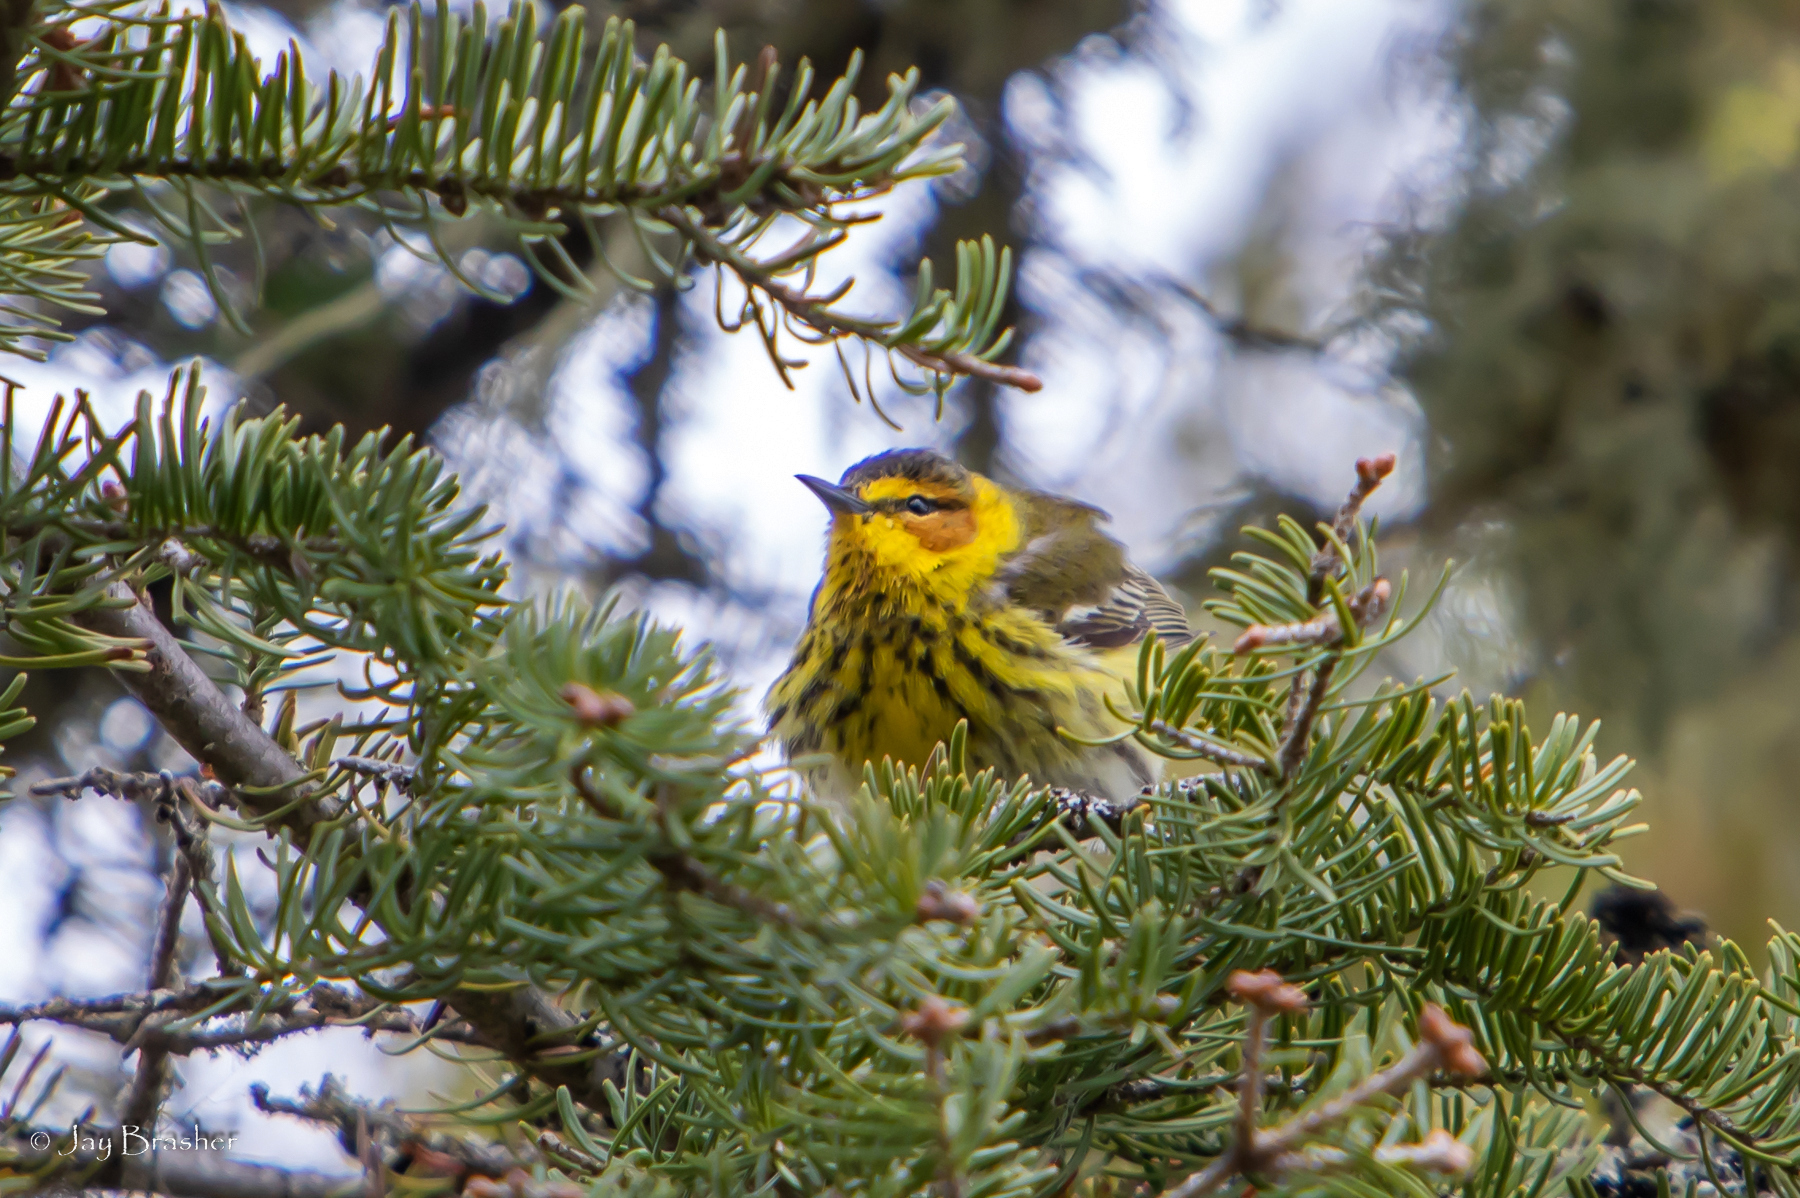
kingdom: Animalia
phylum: Chordata
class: Aves
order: Passeriformes
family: Parulidae
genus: Setophaga
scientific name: Setophaga tigrina
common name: Cape may warbler
